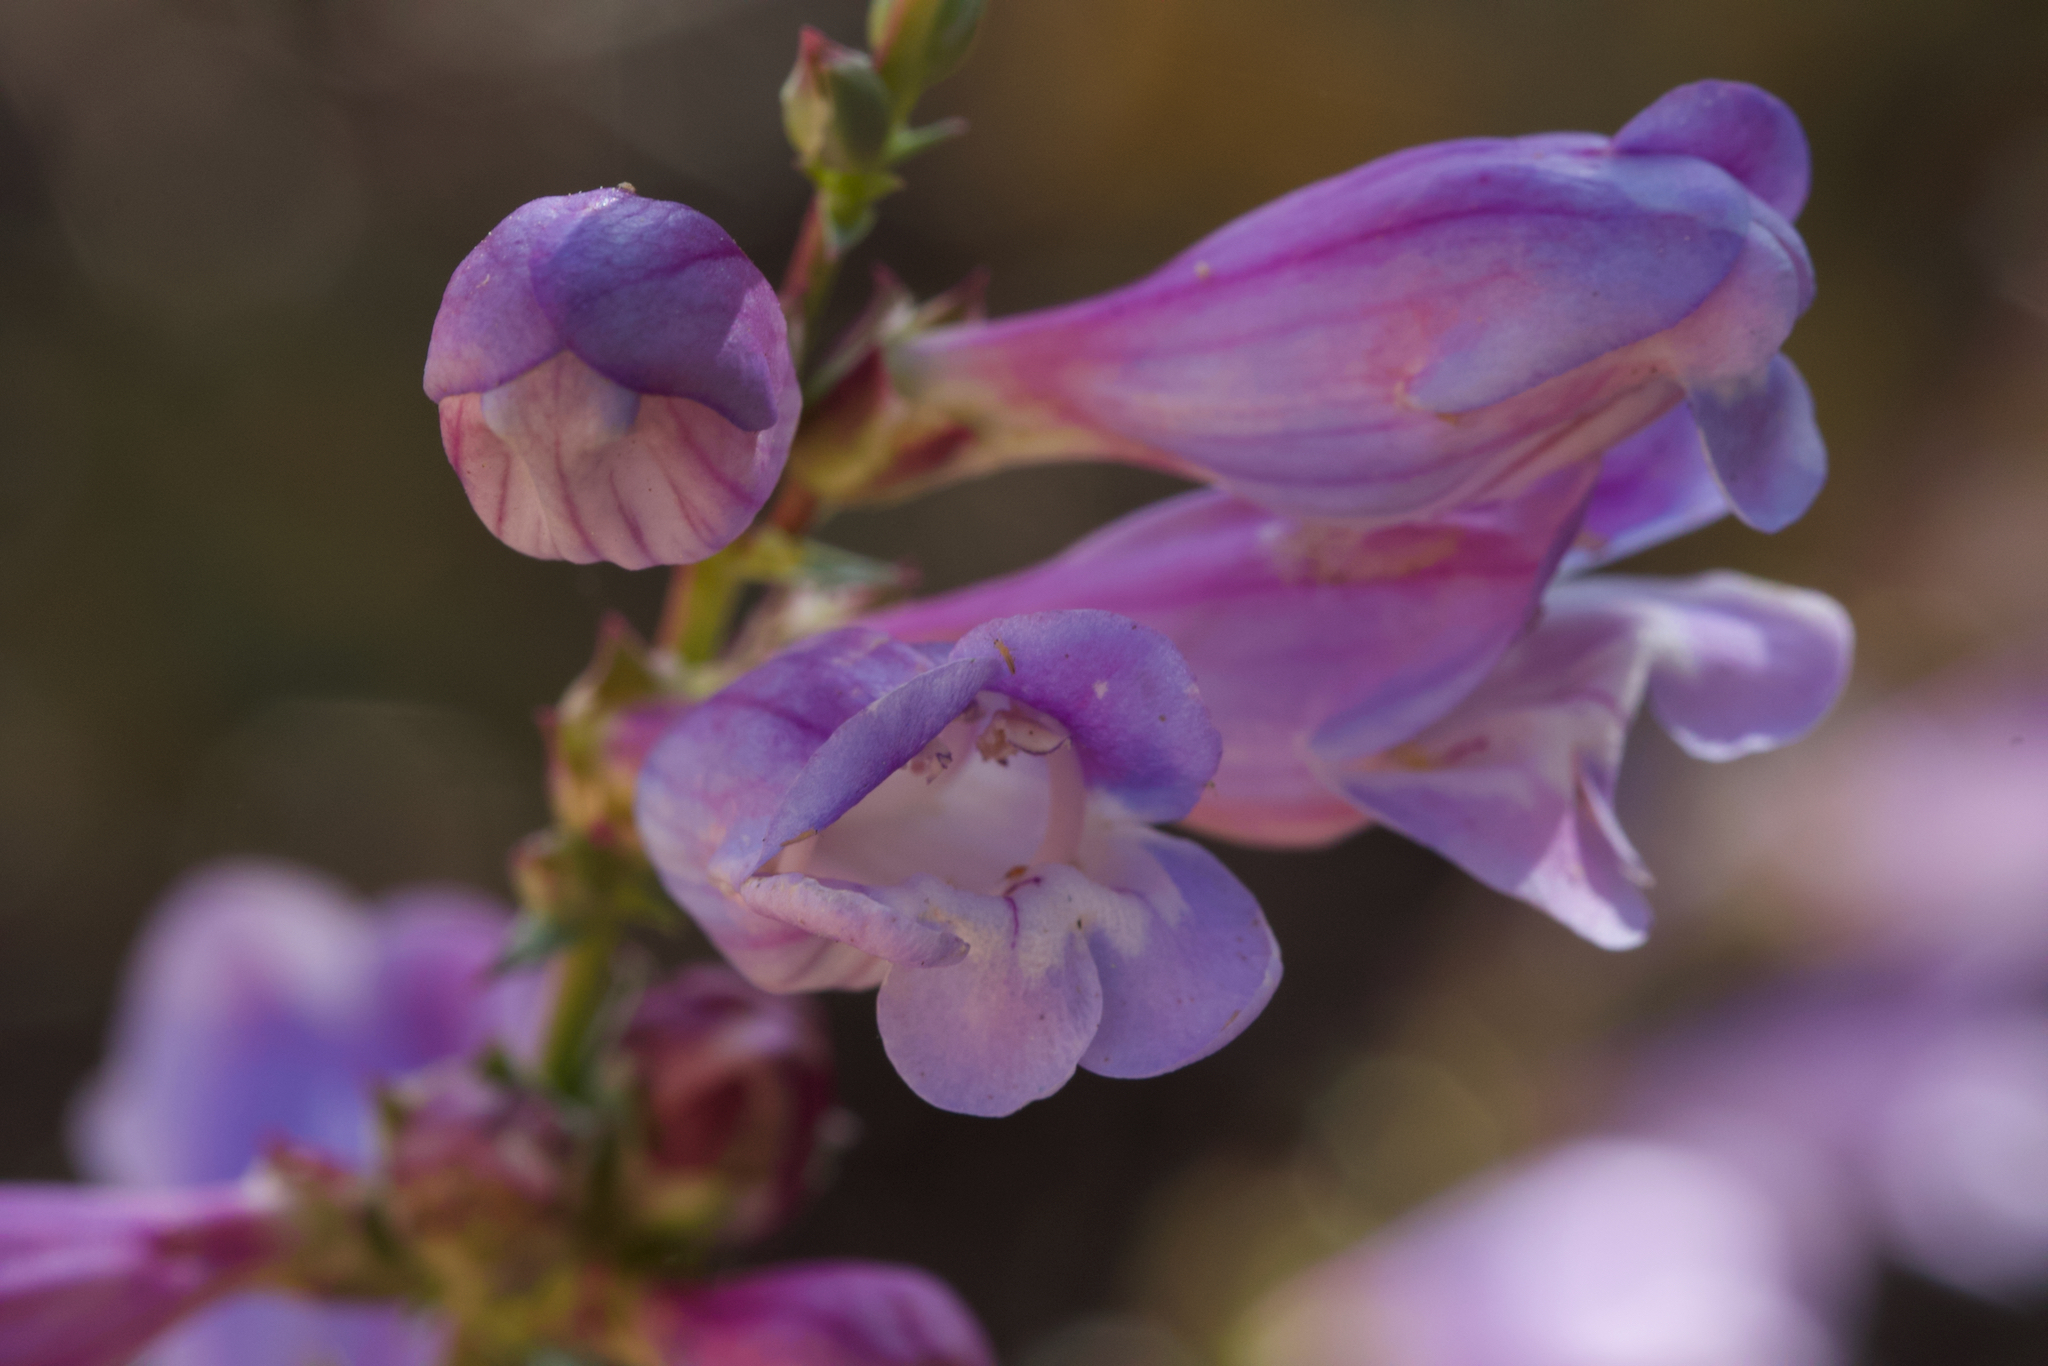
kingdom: Plantae
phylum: Tracheophyta
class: Magnoliopsida
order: Lamiales
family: Plantaginaceae
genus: Penstemon
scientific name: Penstemon laevis
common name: Smooth penstemon
